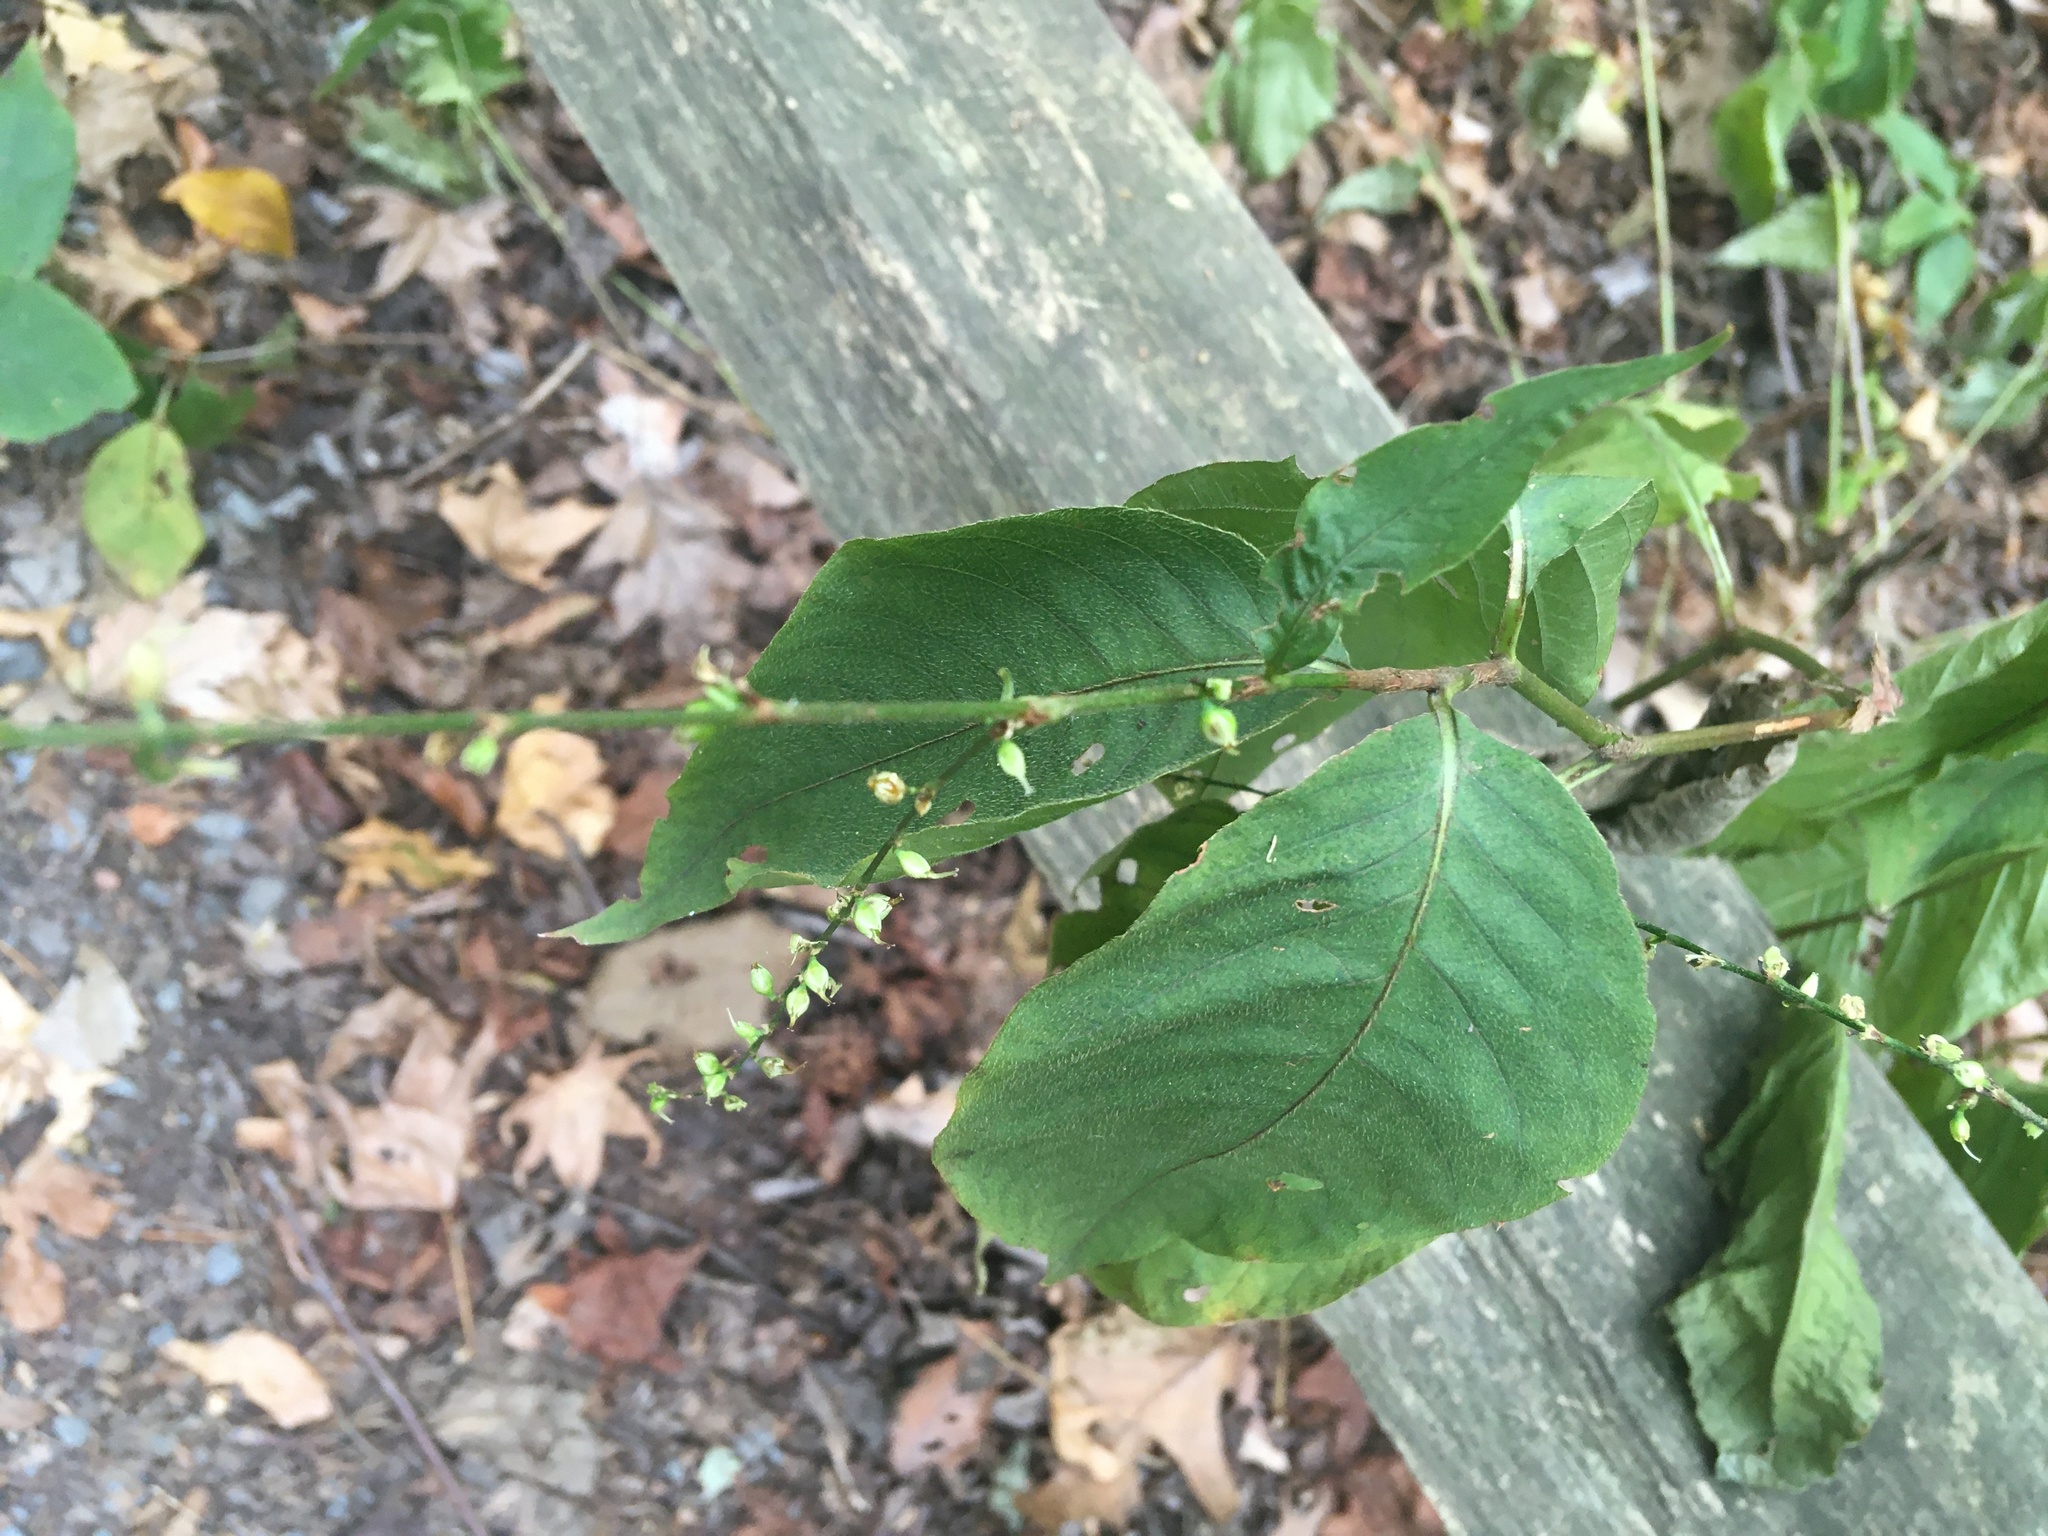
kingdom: Plantae
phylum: Tracheophyta
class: Magnoliopsida
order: Caryophyllales
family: Polygonaceae
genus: Persicaria
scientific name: Persicaria virginiana
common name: Jumpseed
